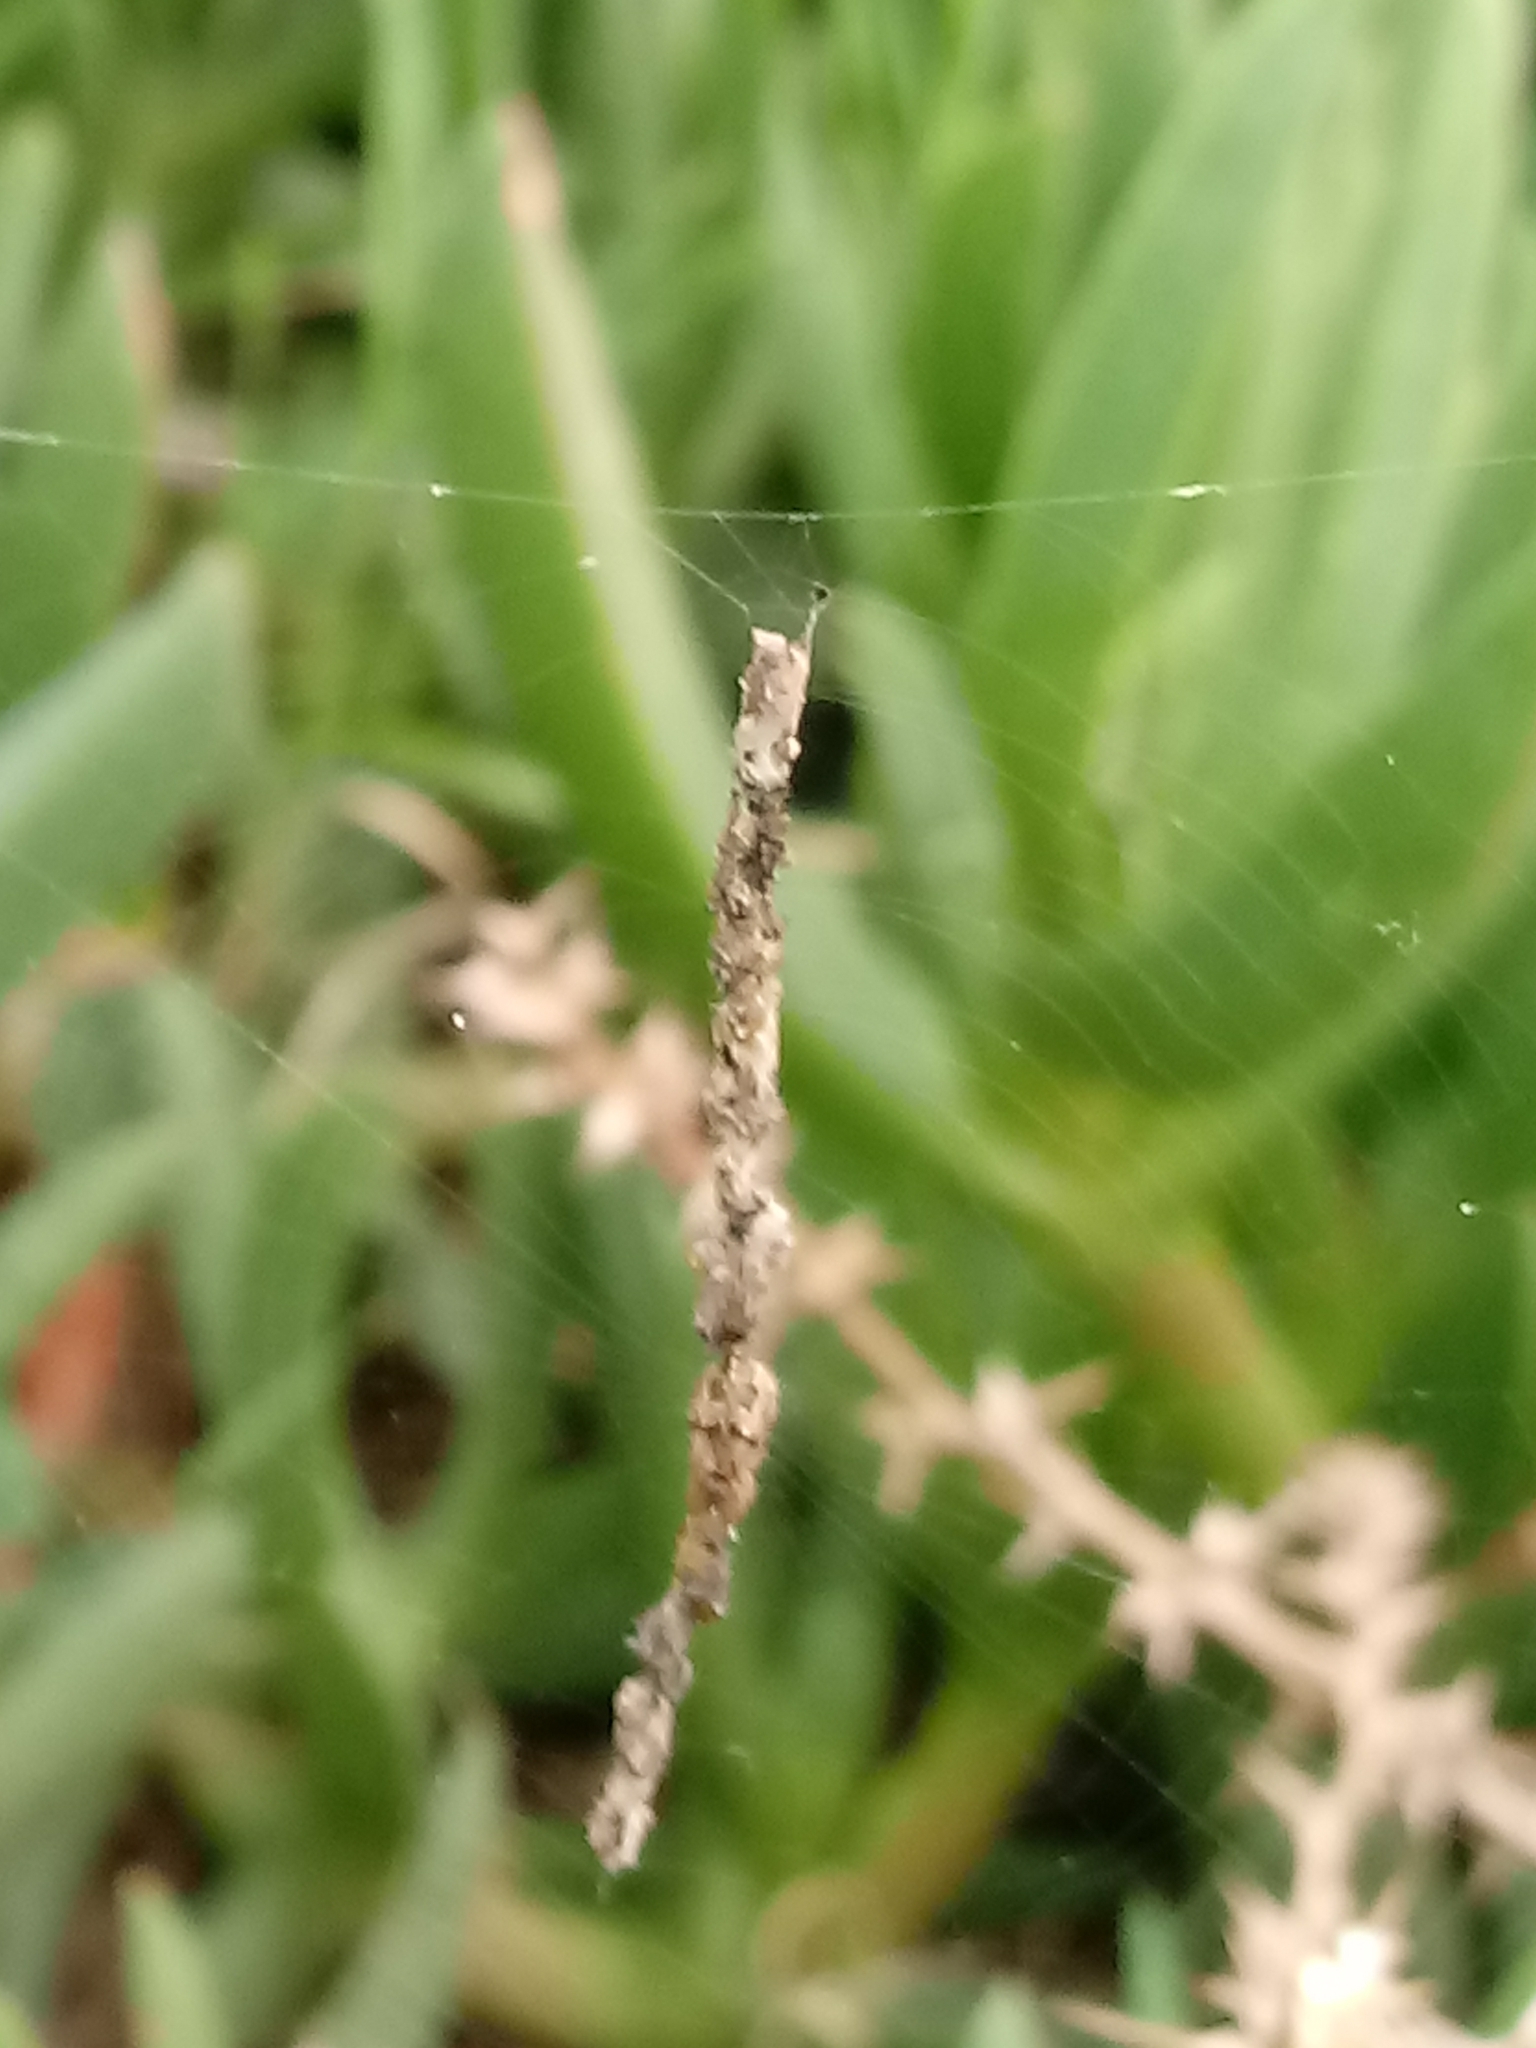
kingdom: Animalia
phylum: Arthropoda
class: Arachnida
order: Araneae
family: Araneidae
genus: Cyclosa
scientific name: Cyclosa turbinata
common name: Orb weavers
